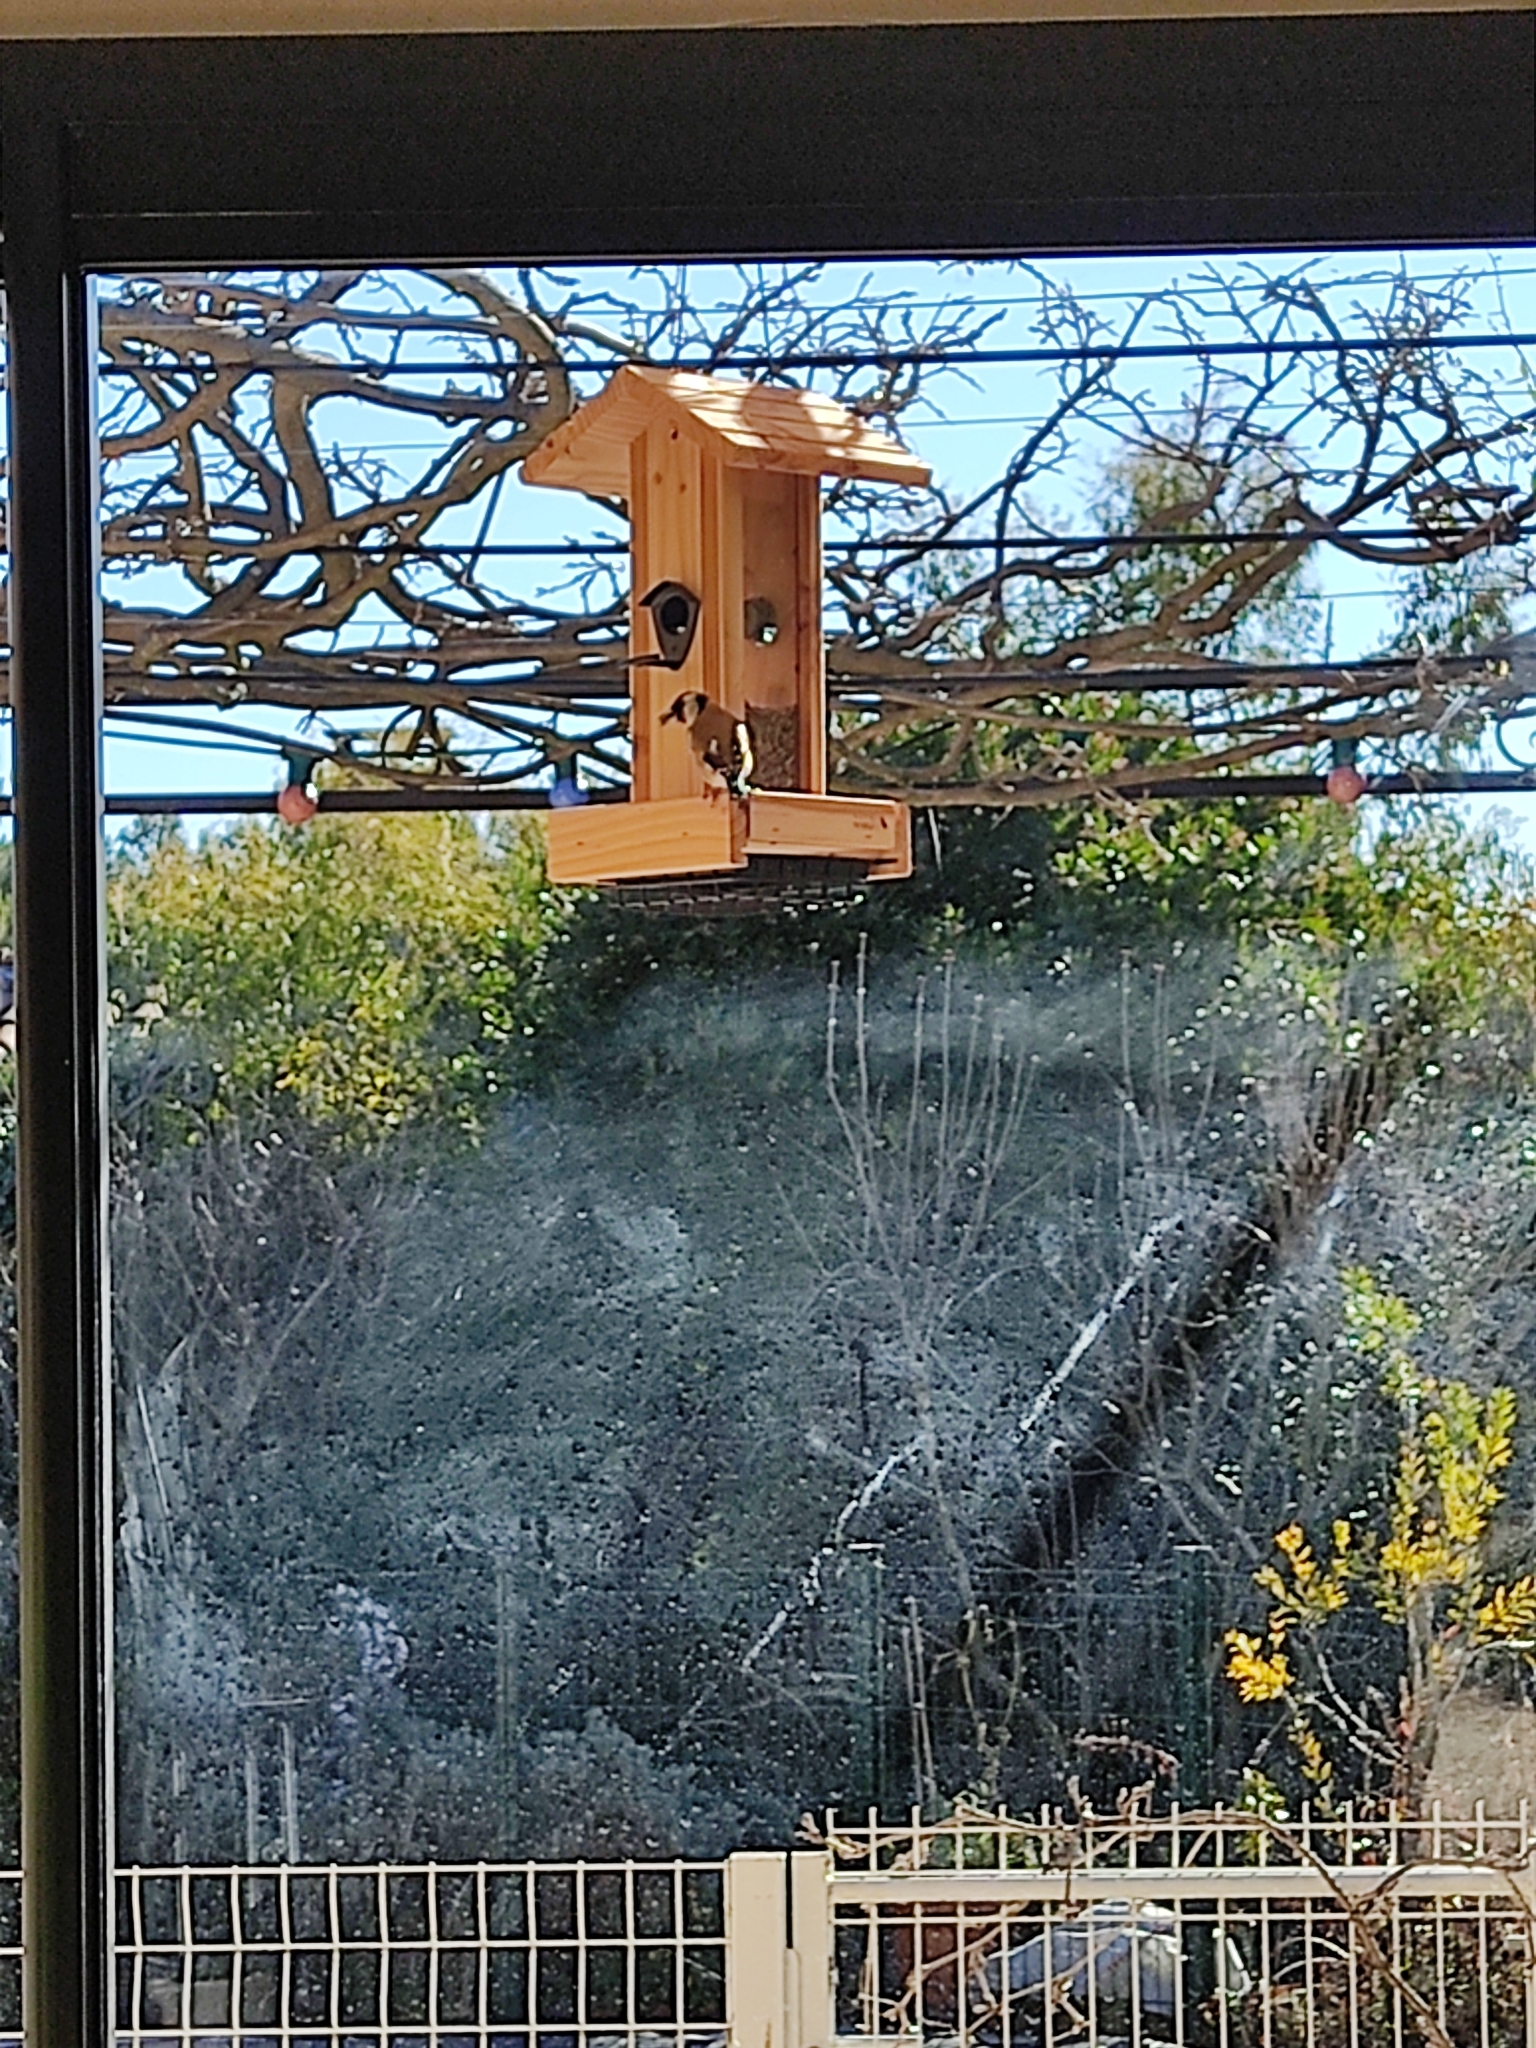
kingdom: Animalia
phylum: Chordata
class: Aves
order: Passeriformes
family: Fringillidae
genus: Carduelis
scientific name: Carduelis carduelis
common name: European goldfinch
